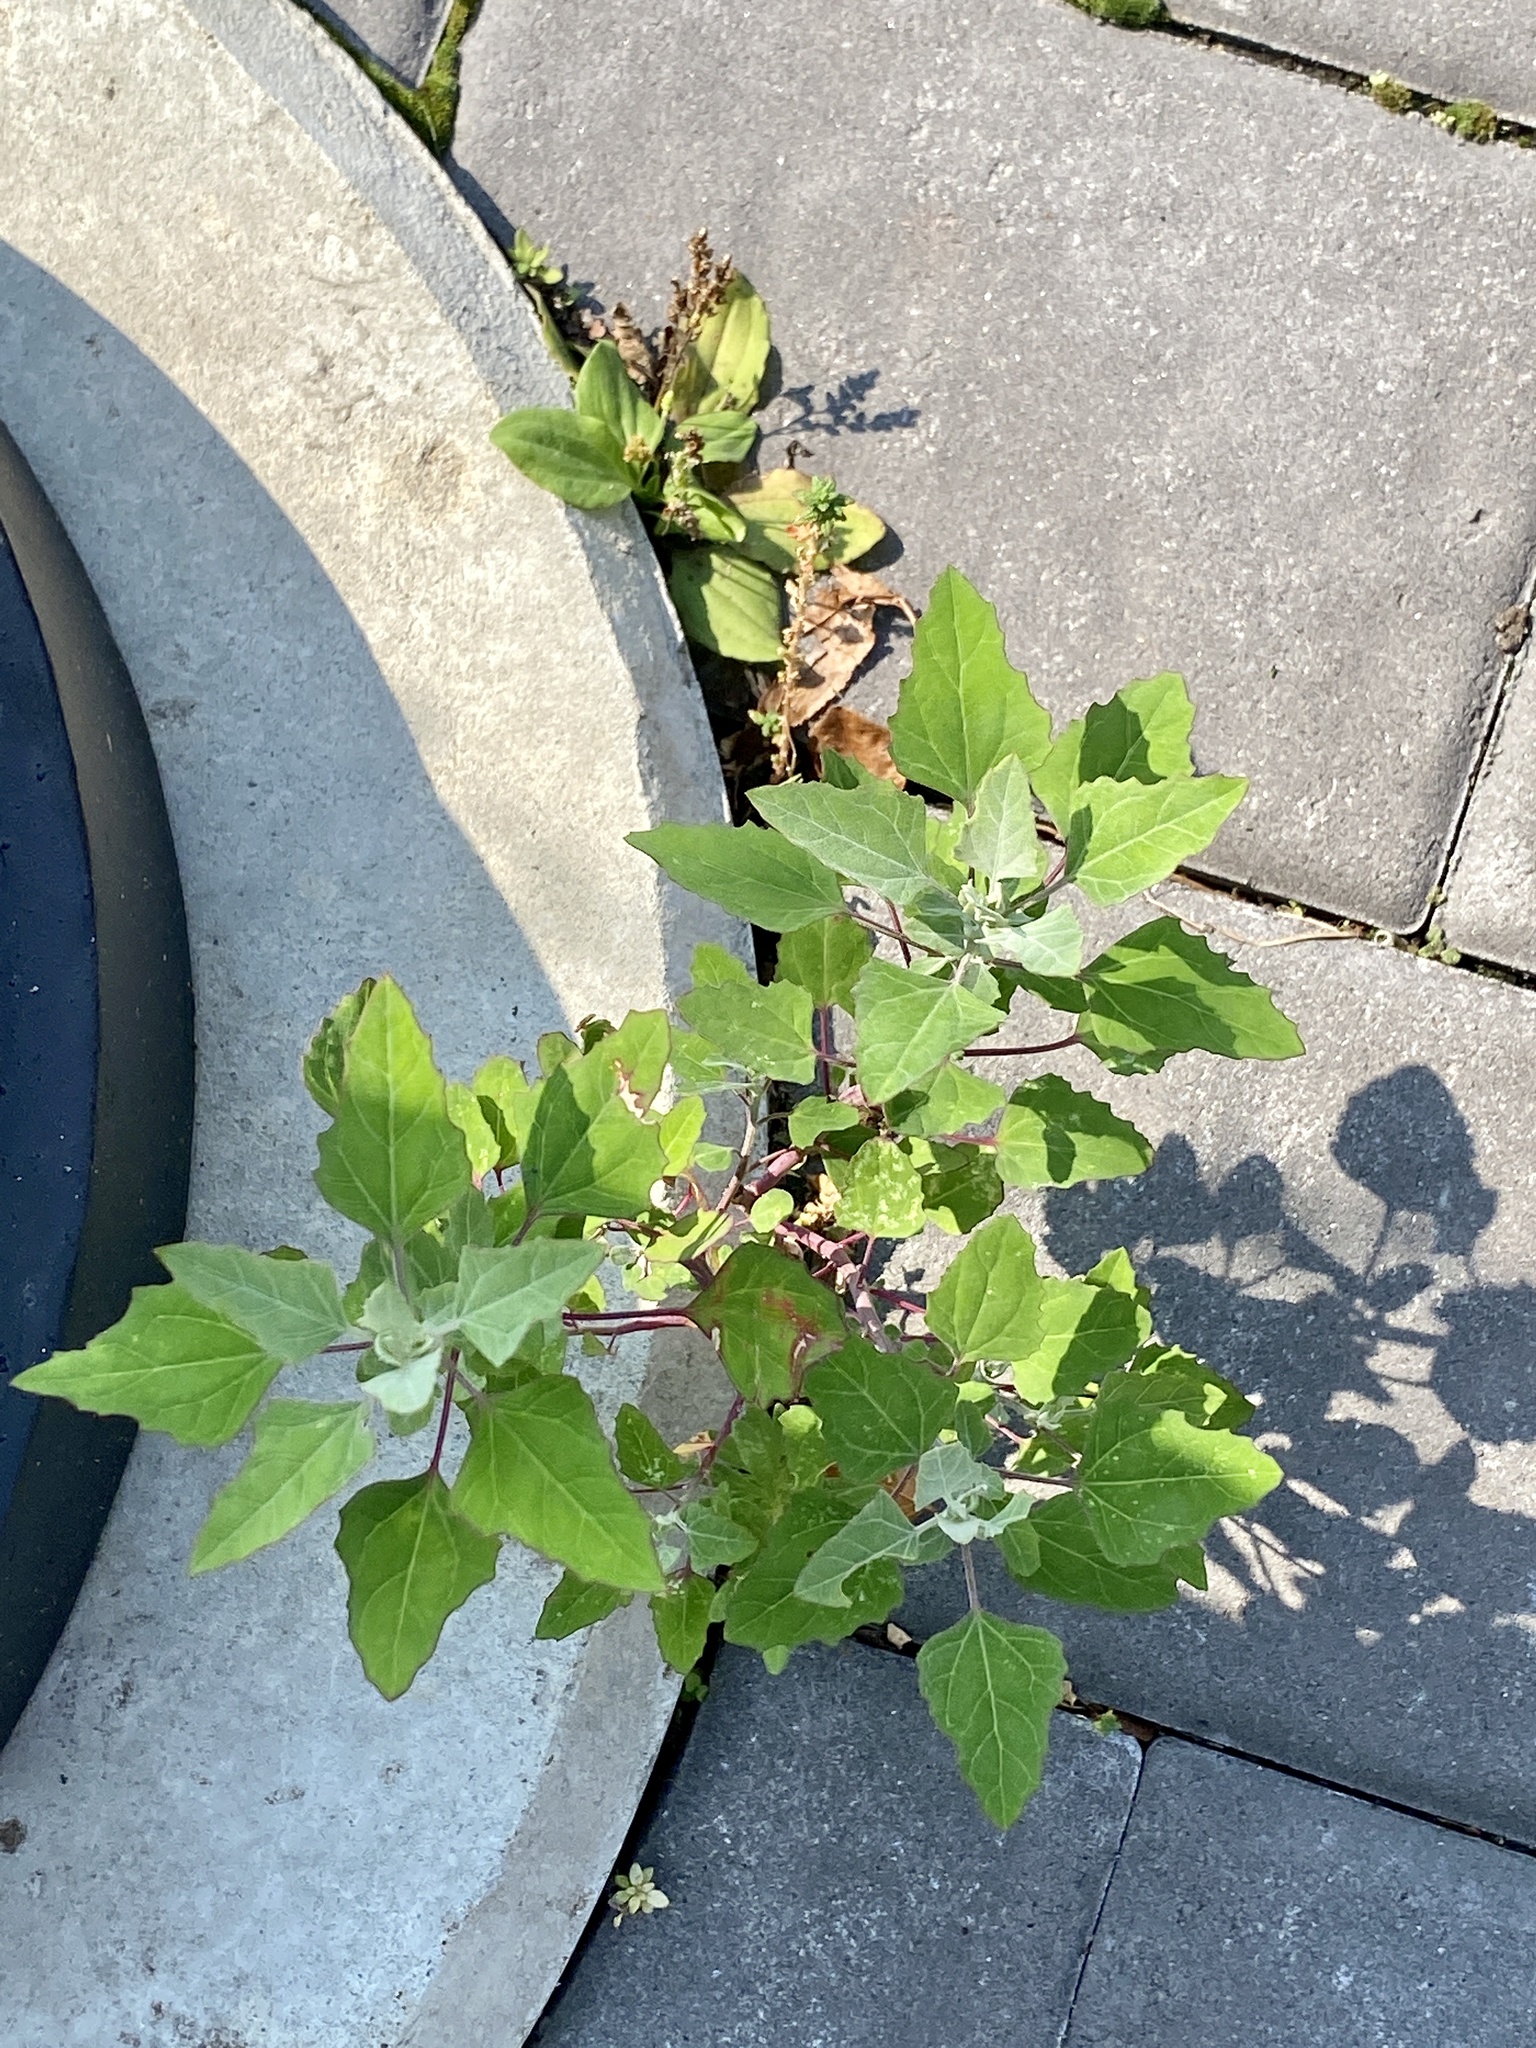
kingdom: Plantae
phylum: Tracheophyta
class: Magnoliopsida
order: Caryophyllales
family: Amaranthaceae
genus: Chenopodium
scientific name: Chenopodium album
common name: Fat-hen
